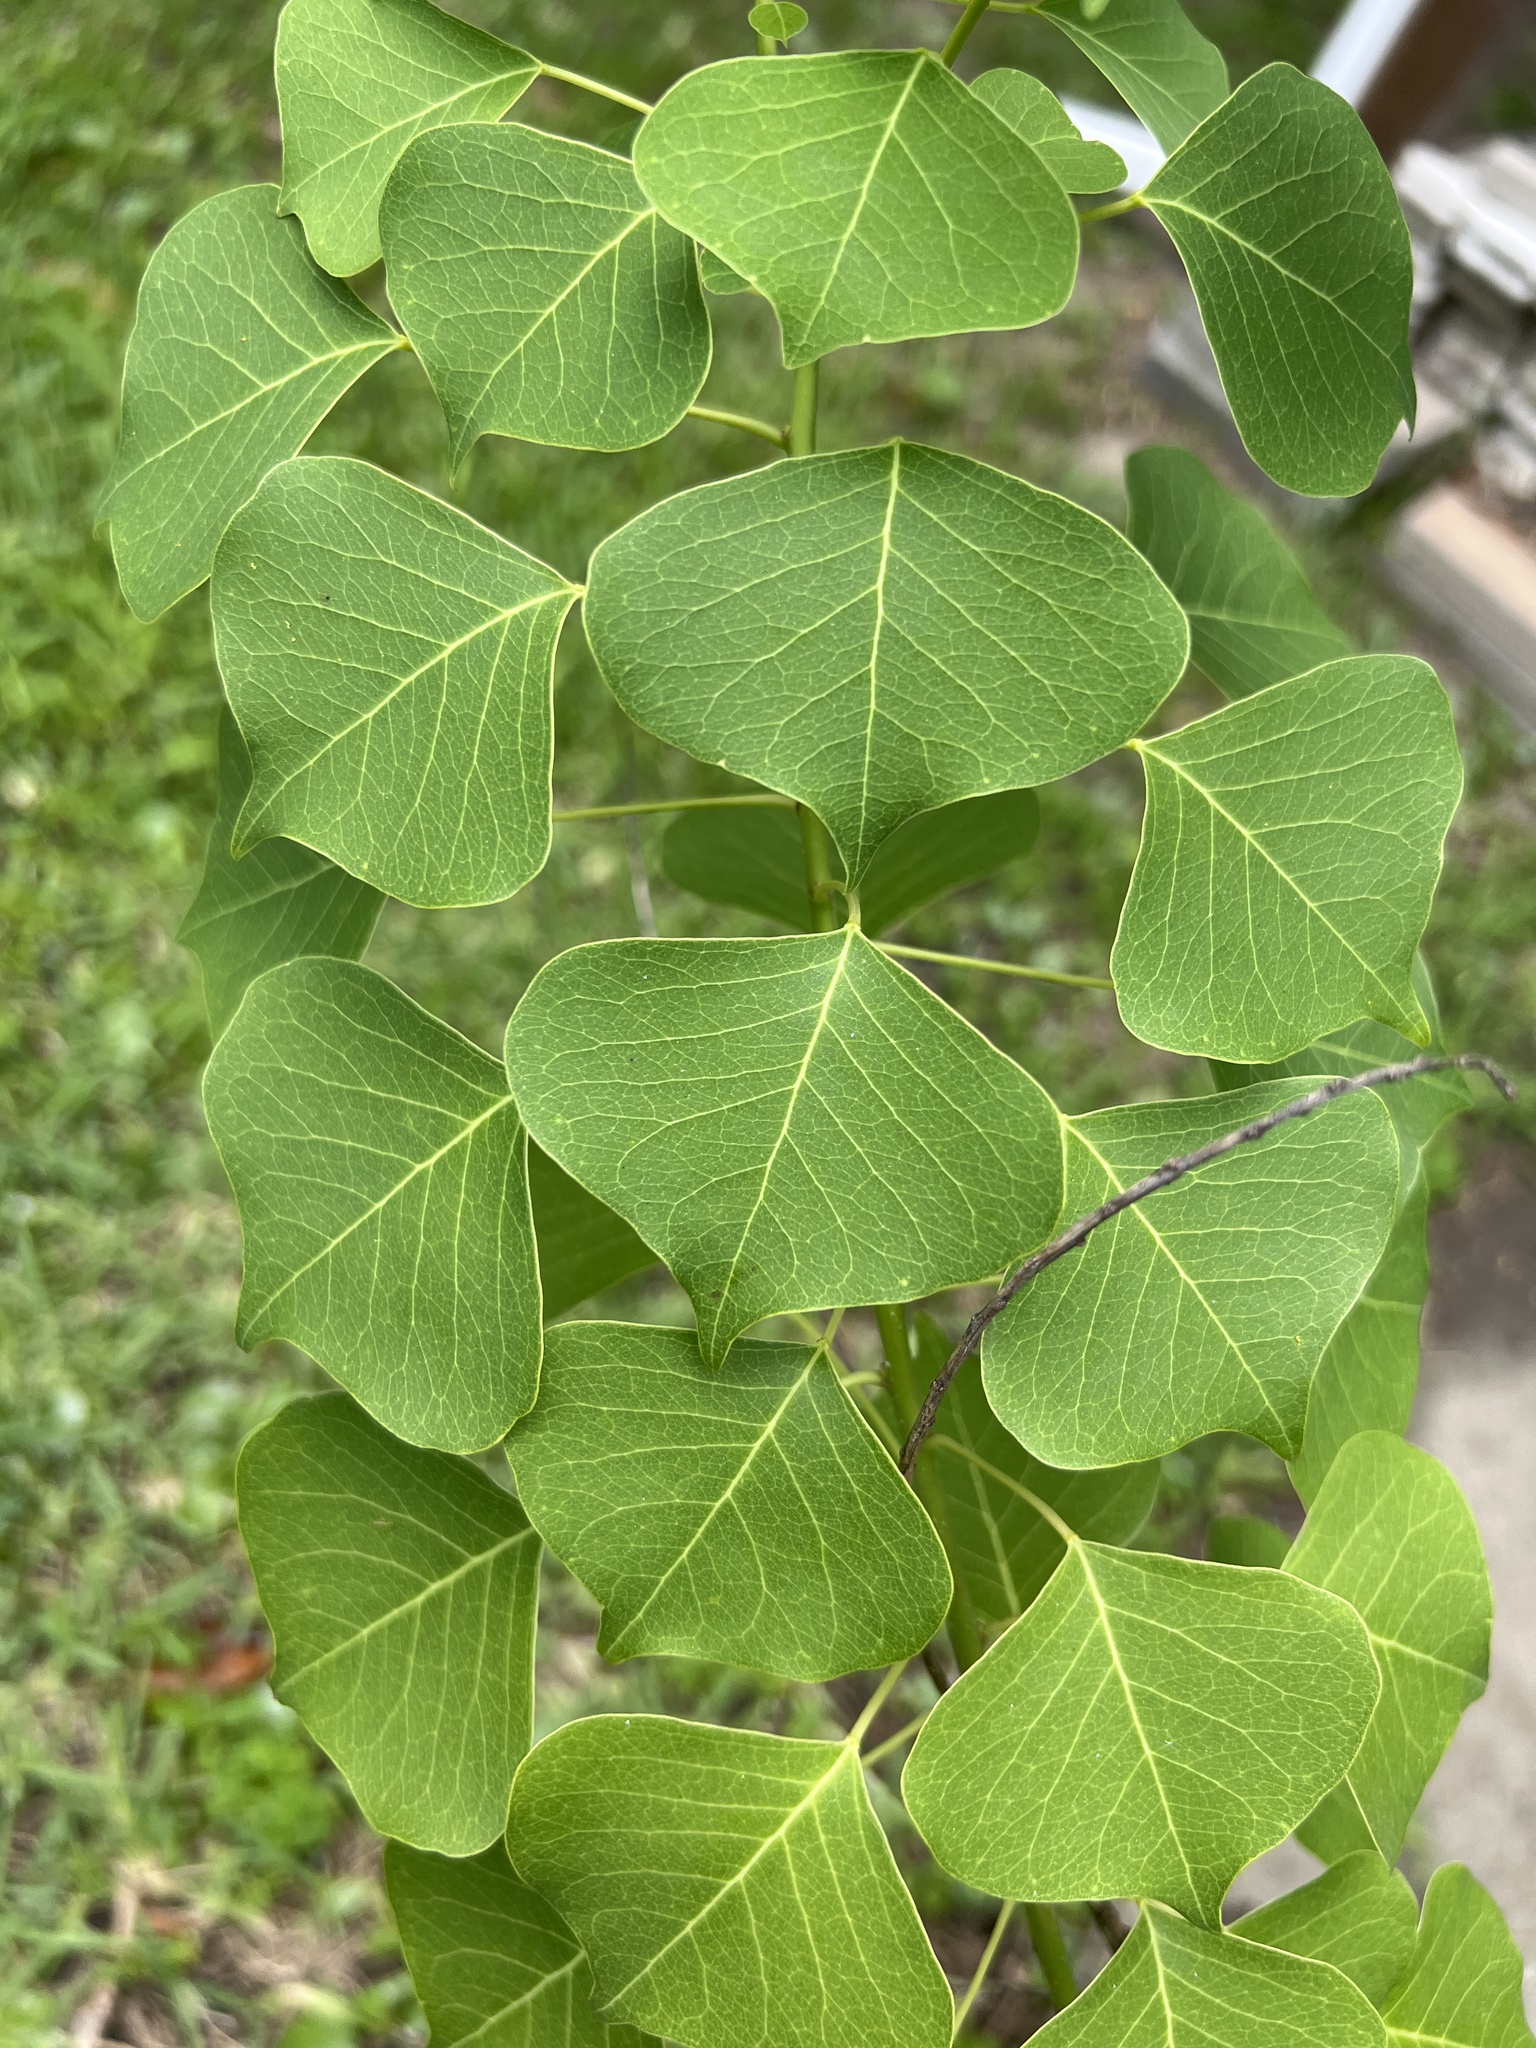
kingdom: Plantae
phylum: Tracheophyta
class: Magnoliopsida
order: Malpighiales
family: Euphorbiaceae
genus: Triadica
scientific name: Triadica sebifera
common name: Chinese tallow
